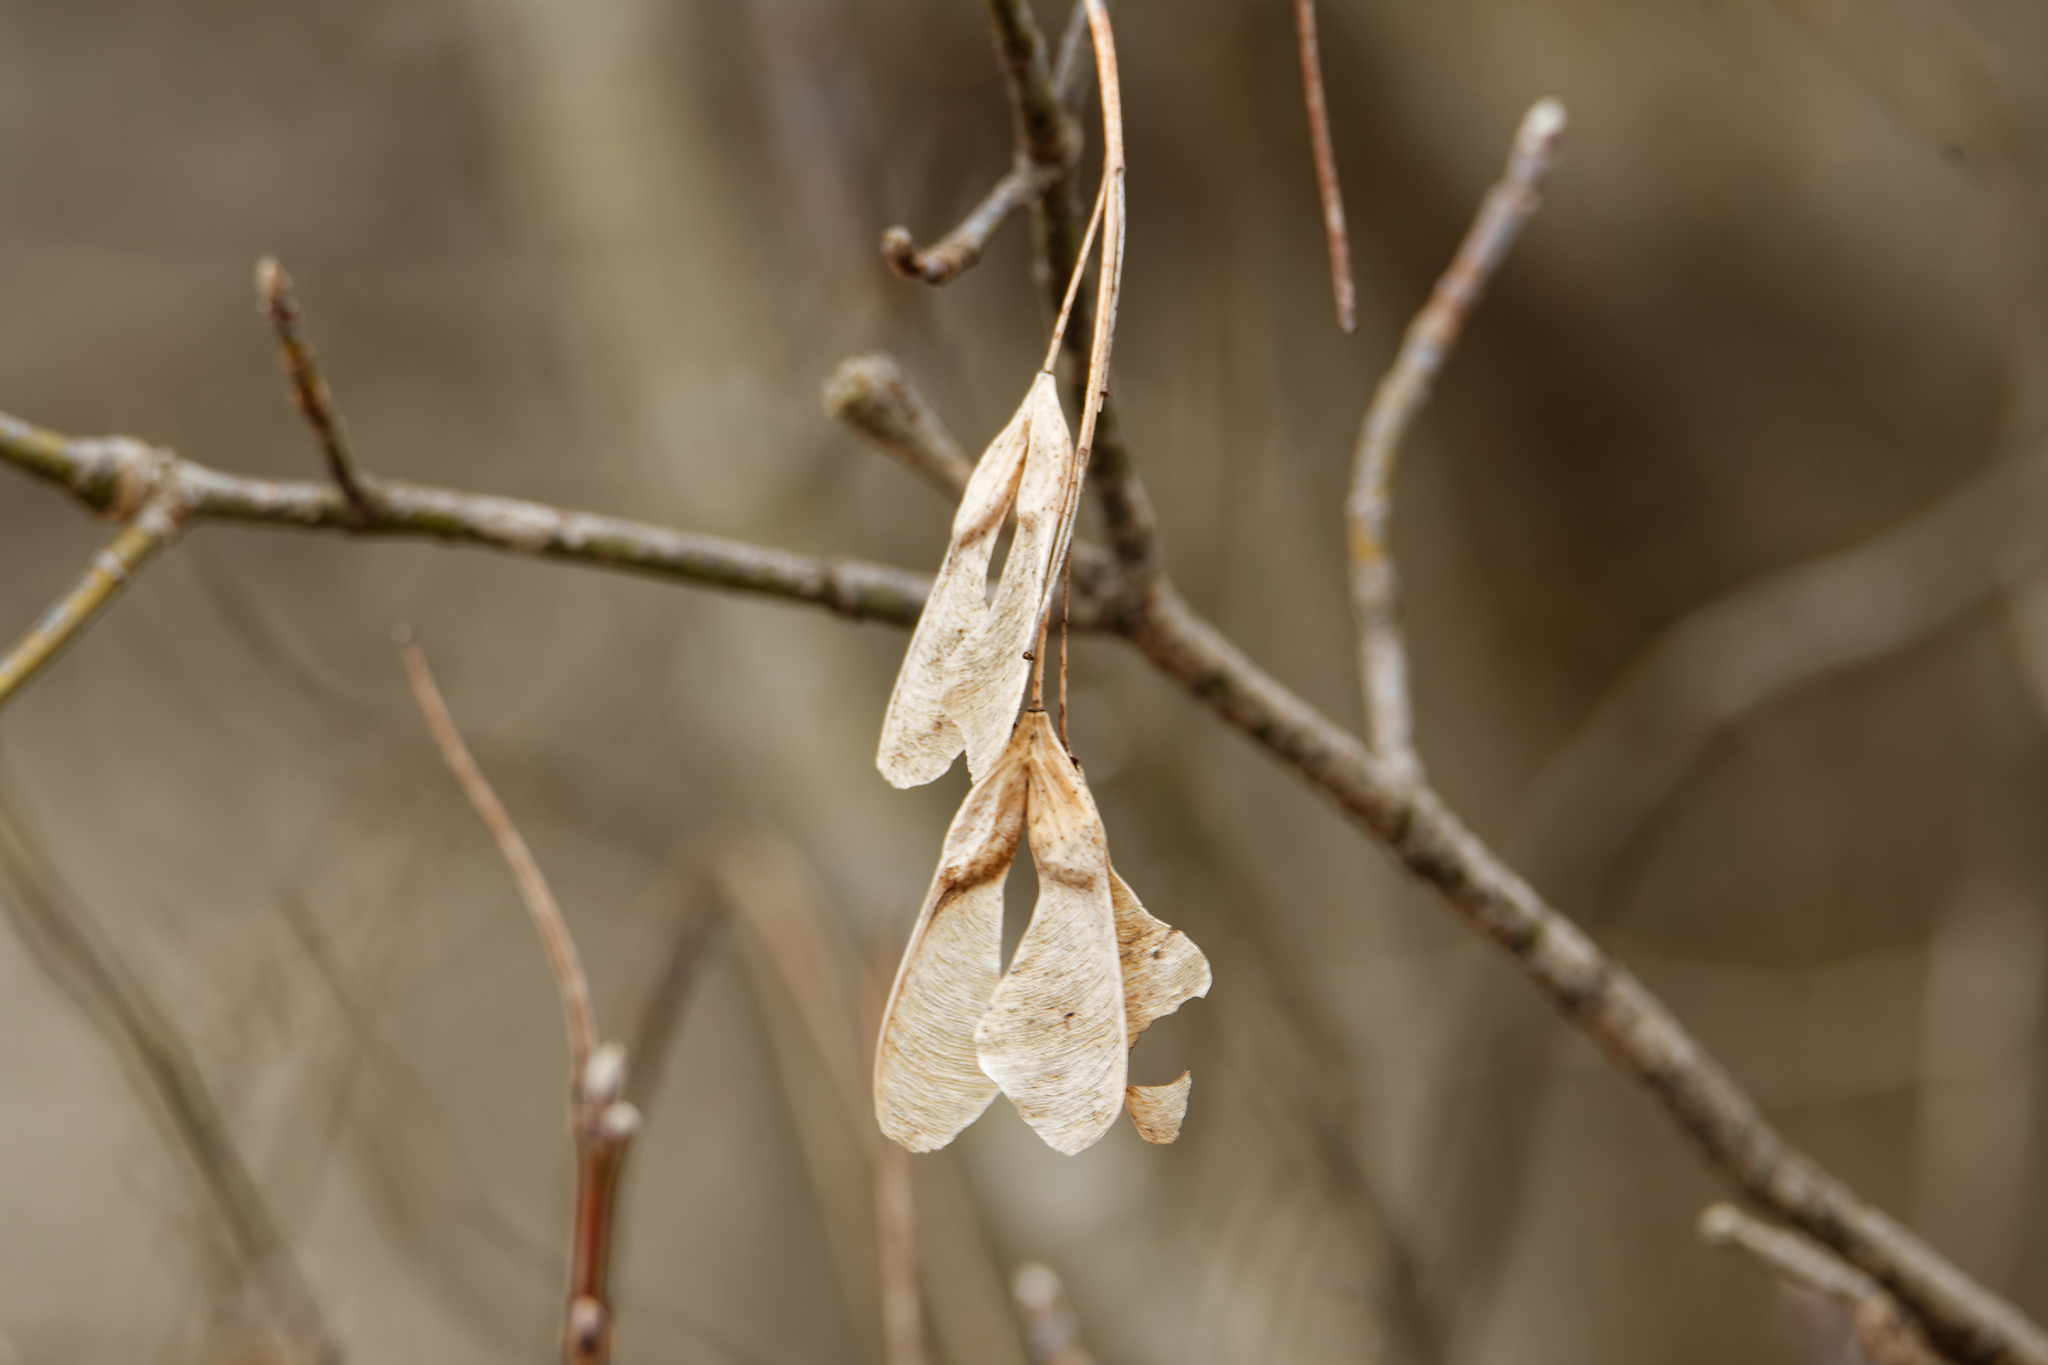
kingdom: Plantae
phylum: Tracheophyta
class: Magnoliopsida
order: Sapindales
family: Sapindaceae
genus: Acer
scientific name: Acer negundo
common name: Ashleaf maple
